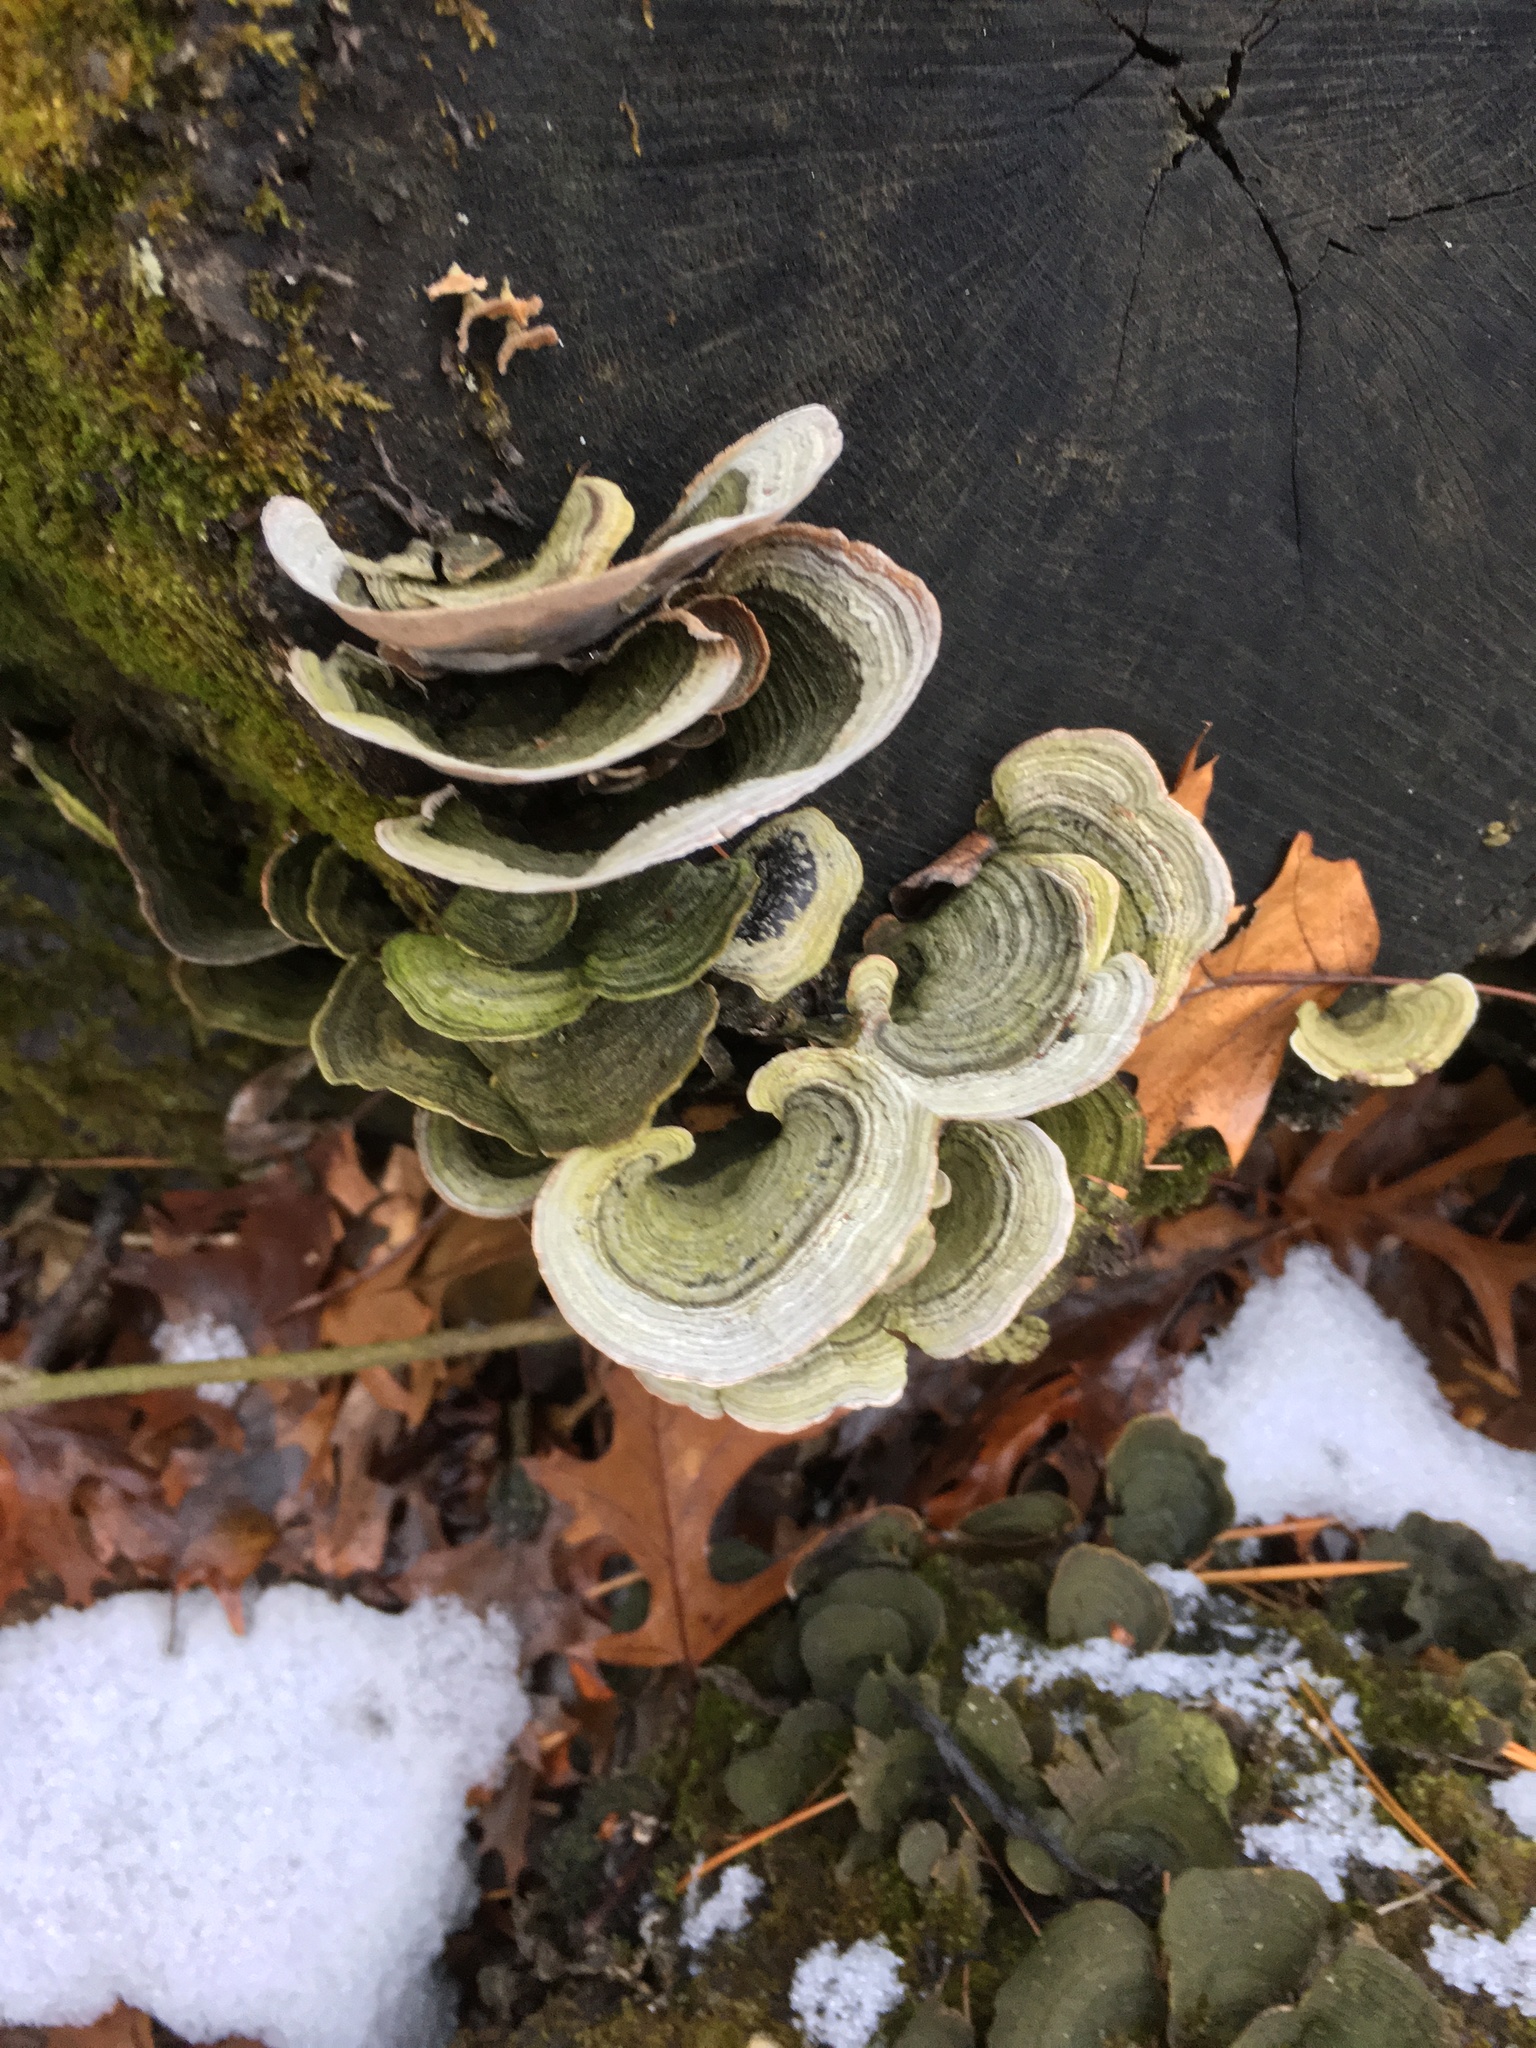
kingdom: Fungi
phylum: Basidiomycota
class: Agaricomycetes
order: Russulales
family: Stereaceae
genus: Stereum
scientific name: Stereum ostrea
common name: False turkeytail
